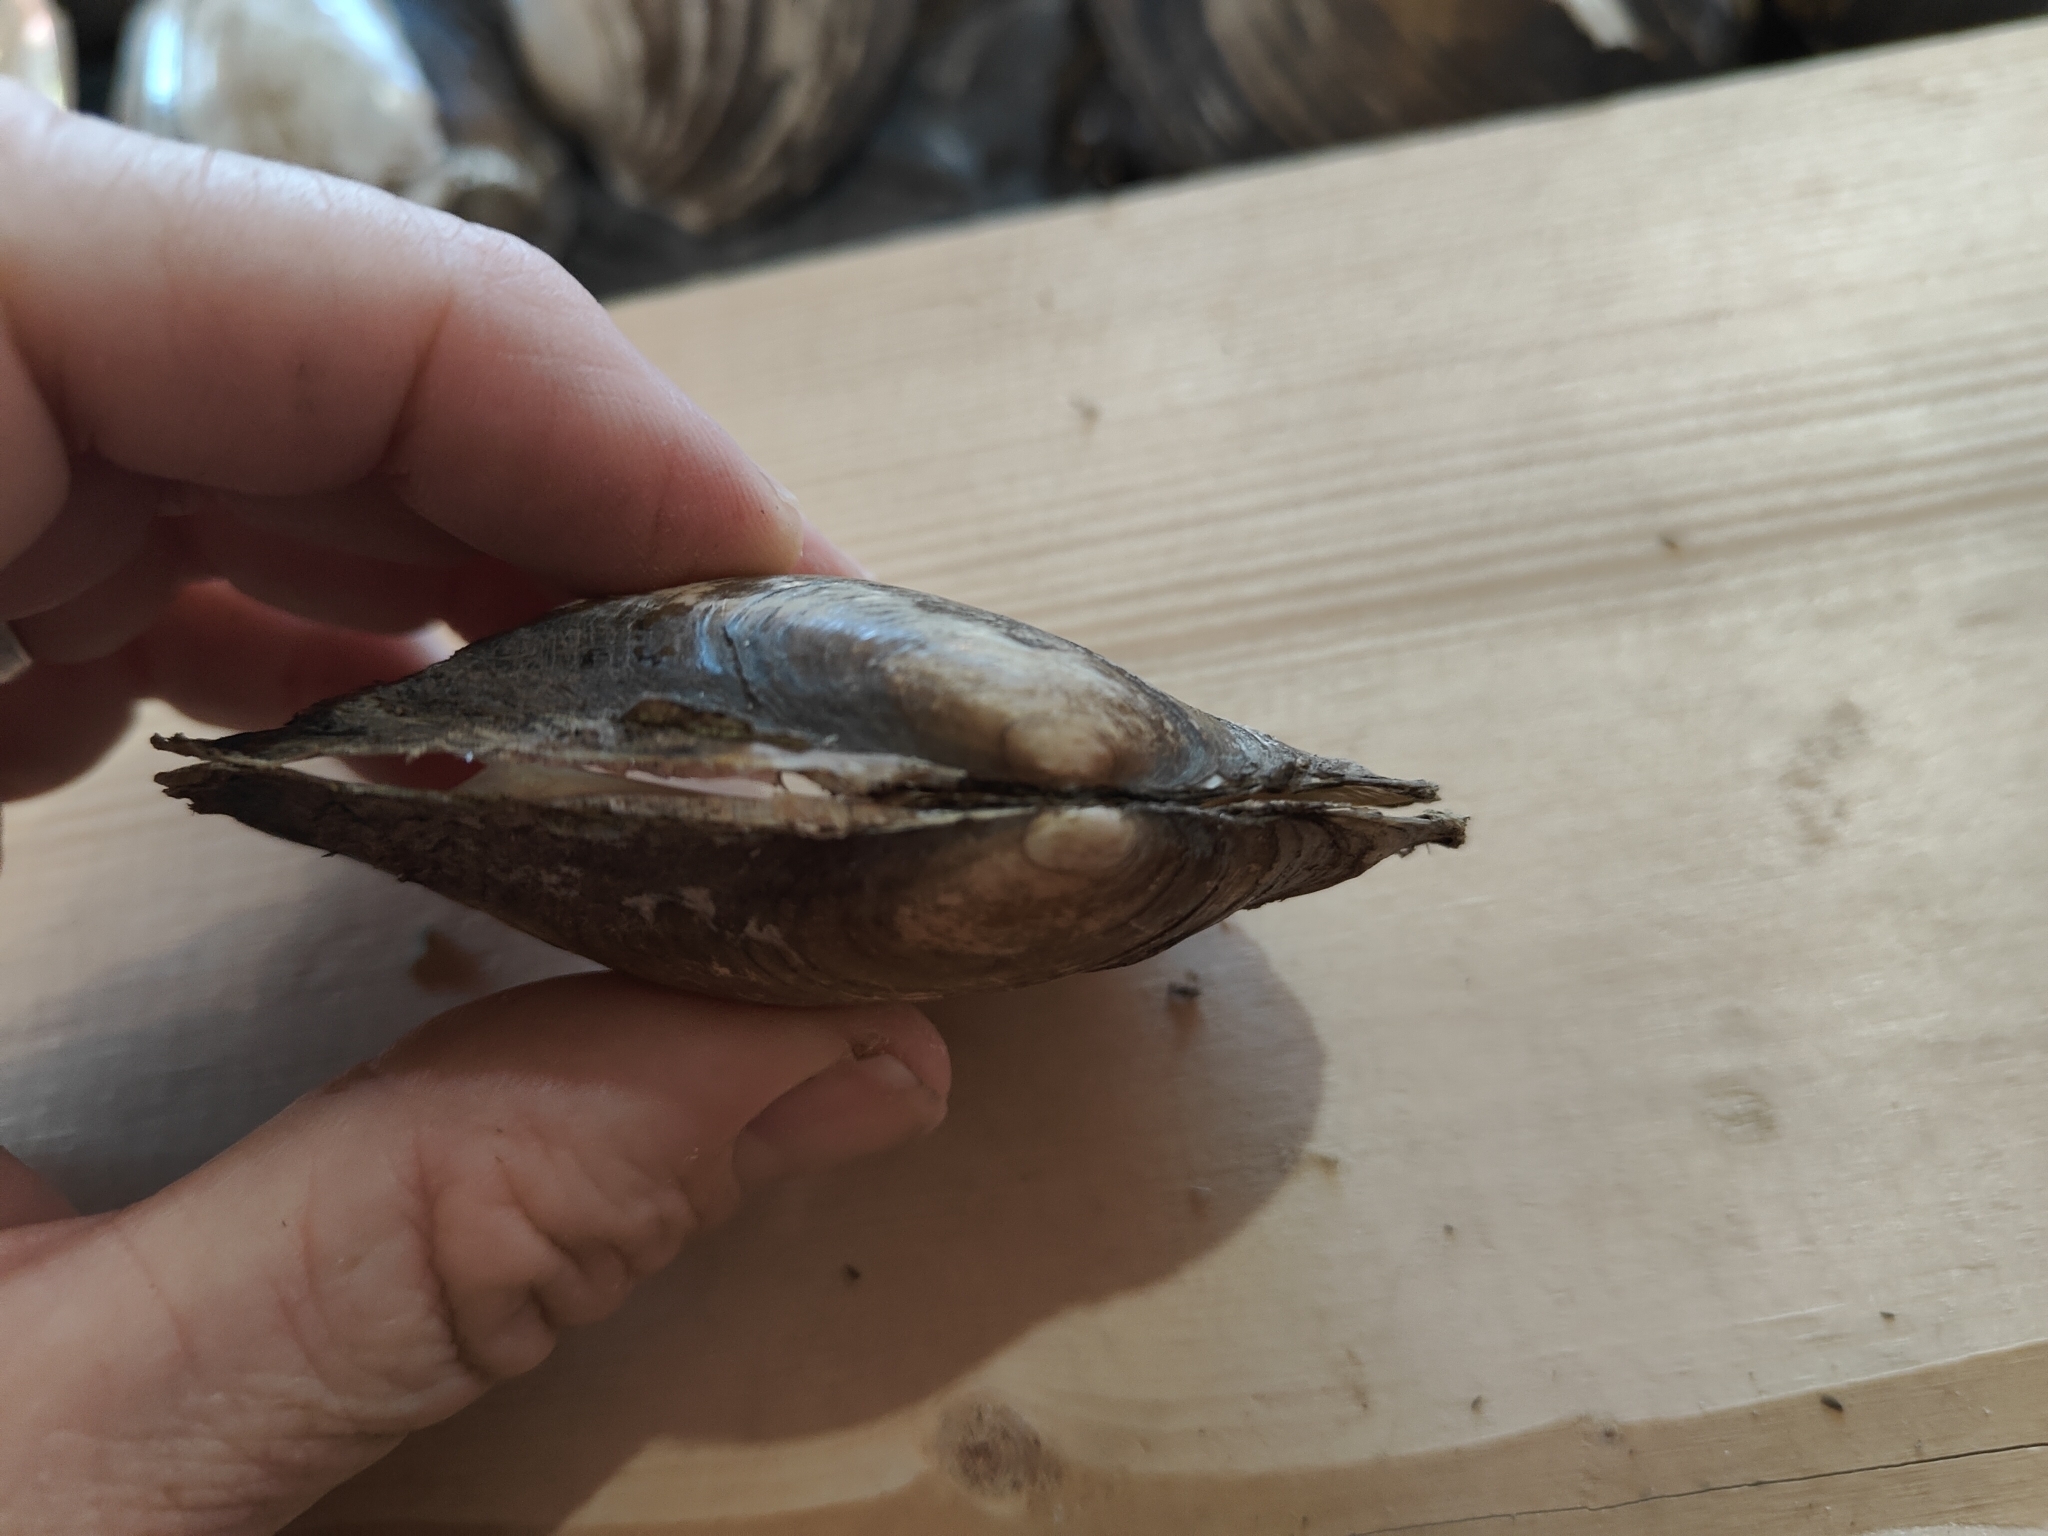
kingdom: Animalia
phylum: Mollusca
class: Bivalvia
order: Unionida
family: Unionidae
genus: Potamilus
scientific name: Potamilus fragilis
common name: Fragile papershell
